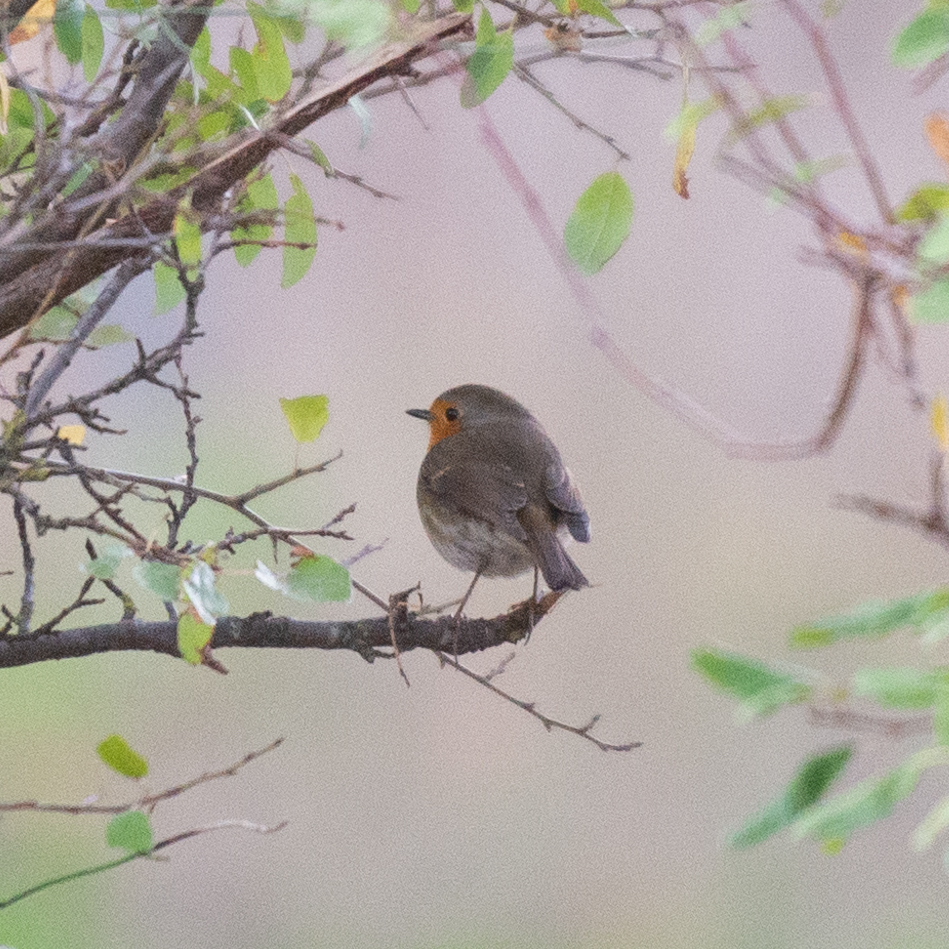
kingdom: Animalia
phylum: Chordata
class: Aves
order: Passeriformes
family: Muscicapidae
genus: Erithacus
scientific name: Erithacus rubecula
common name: European robin
